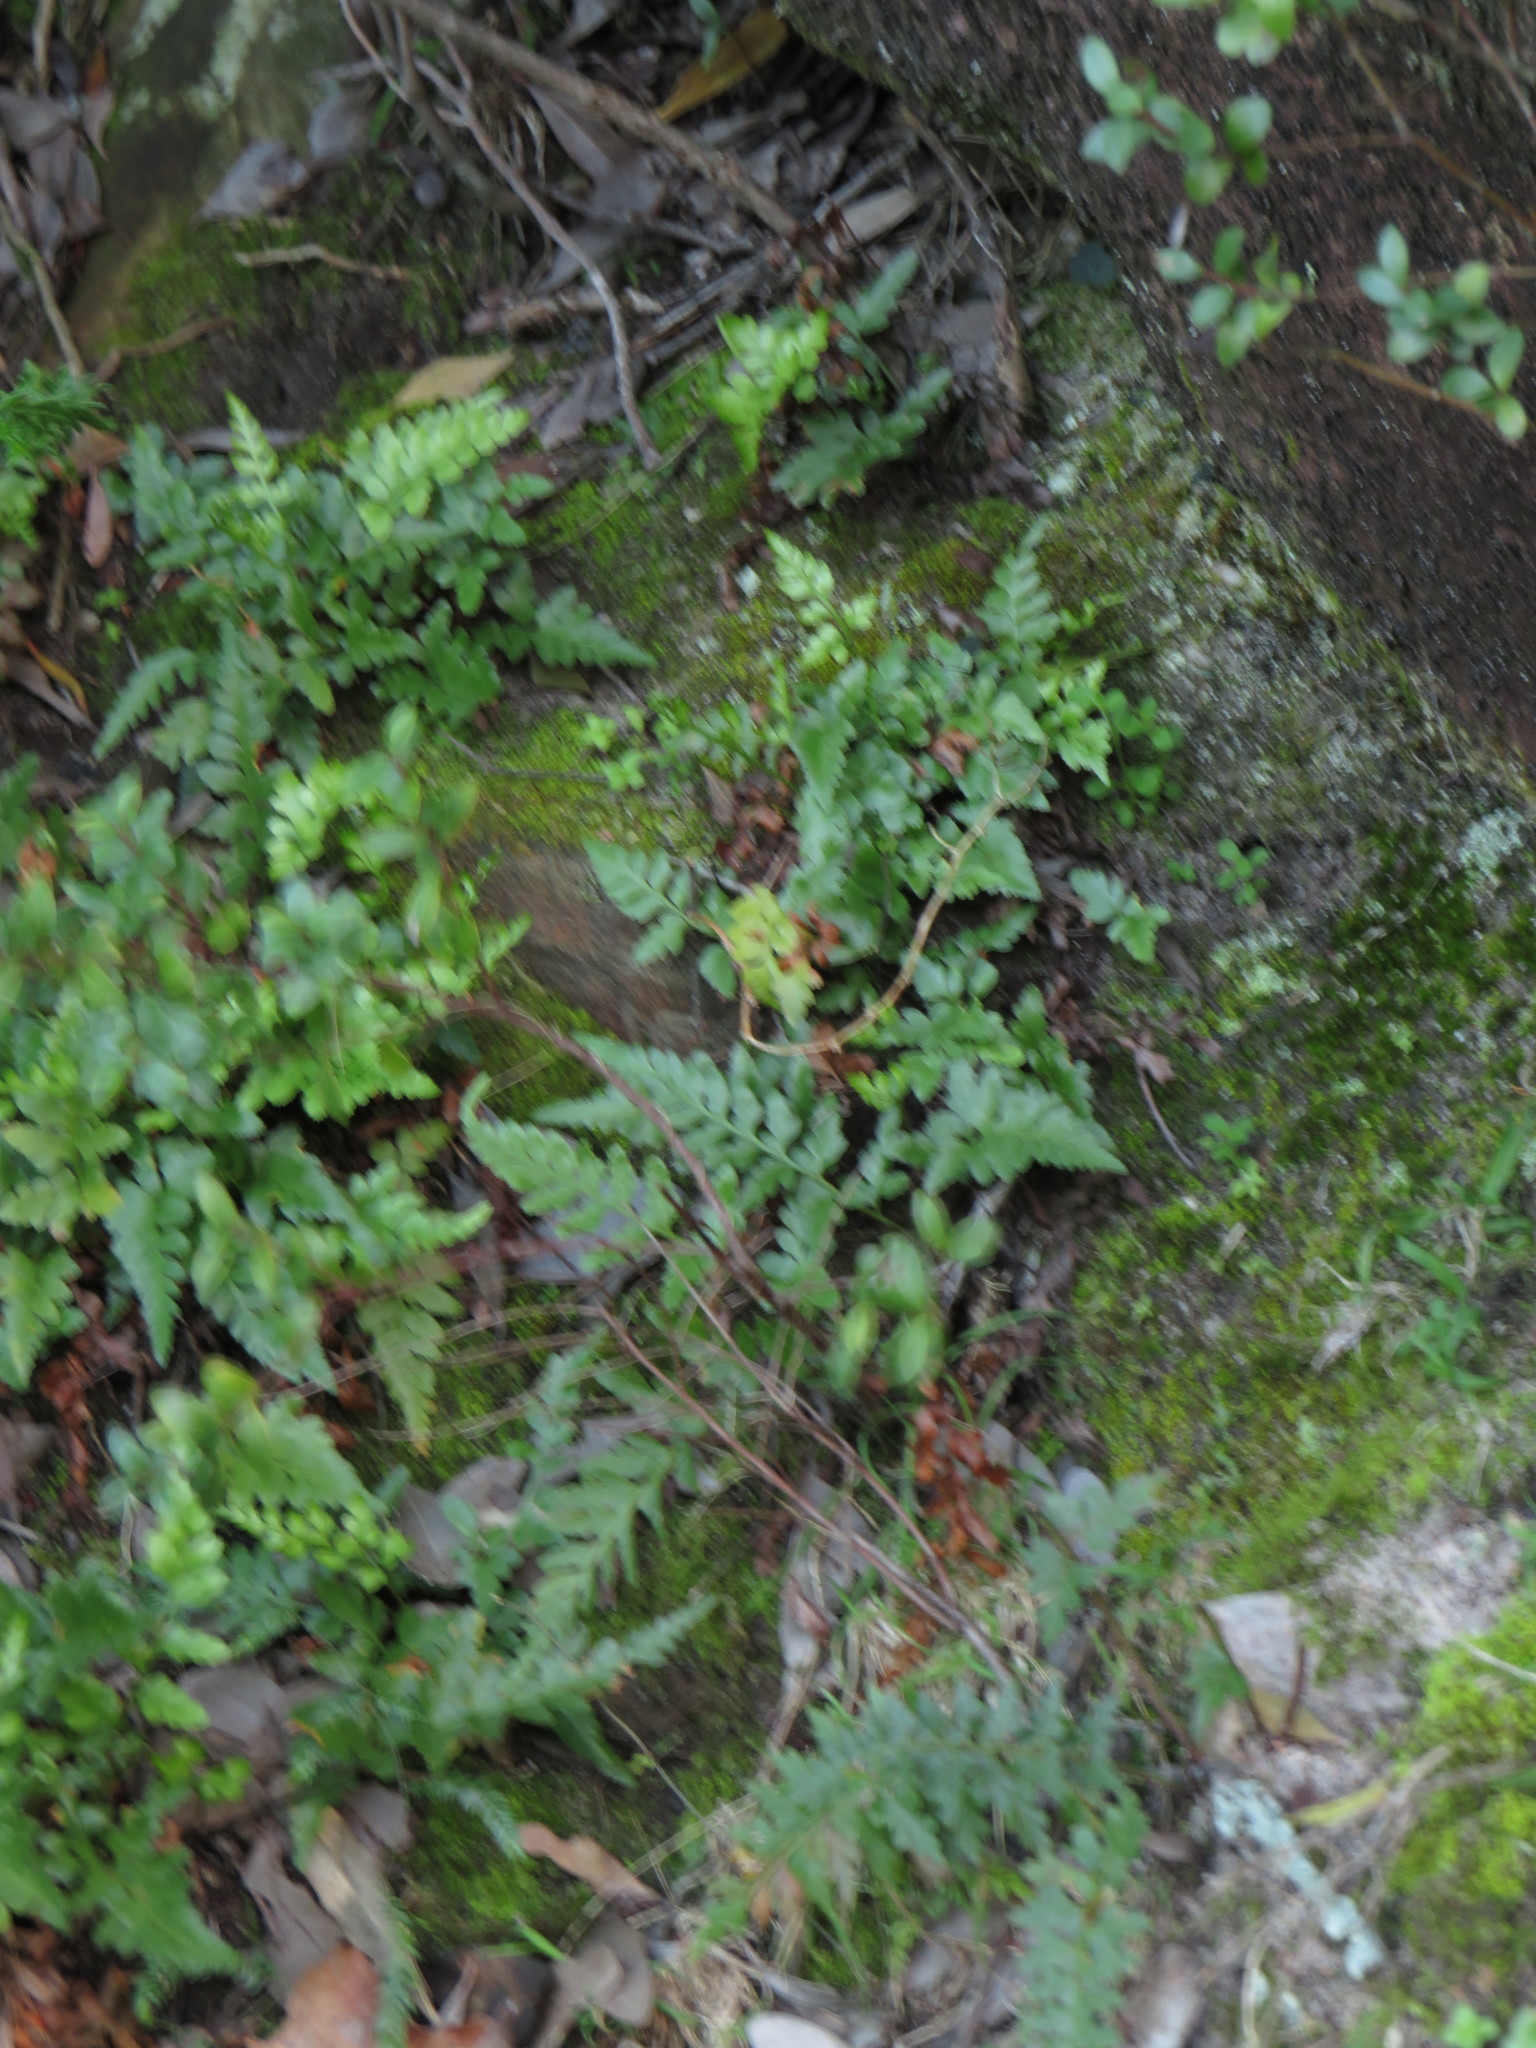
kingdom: Plantae
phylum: Tracheophyta
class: Polypodiopsida
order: Polypodiales
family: Aspleniaceae
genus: Asplenium
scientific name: Asplenium adiantum-nigrum
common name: Black spleenwort
